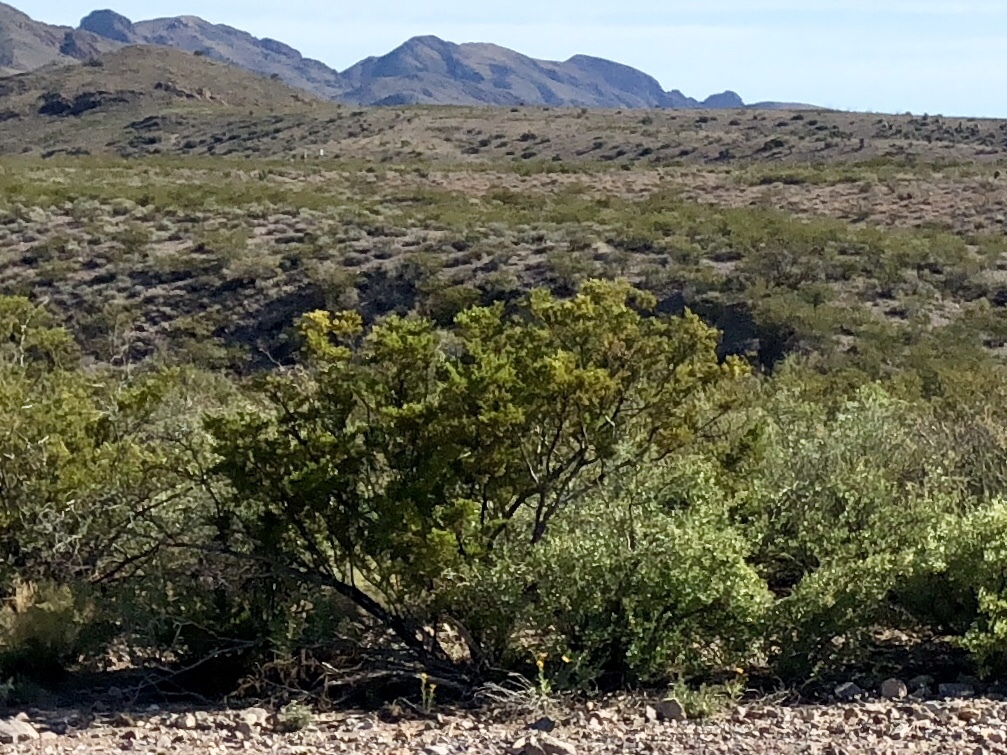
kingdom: Plantae
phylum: Tracheophyta
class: Magnoliopsida
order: Zygophyllales
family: Zygophyllaceae
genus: Larrea
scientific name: Larrea tridentata
